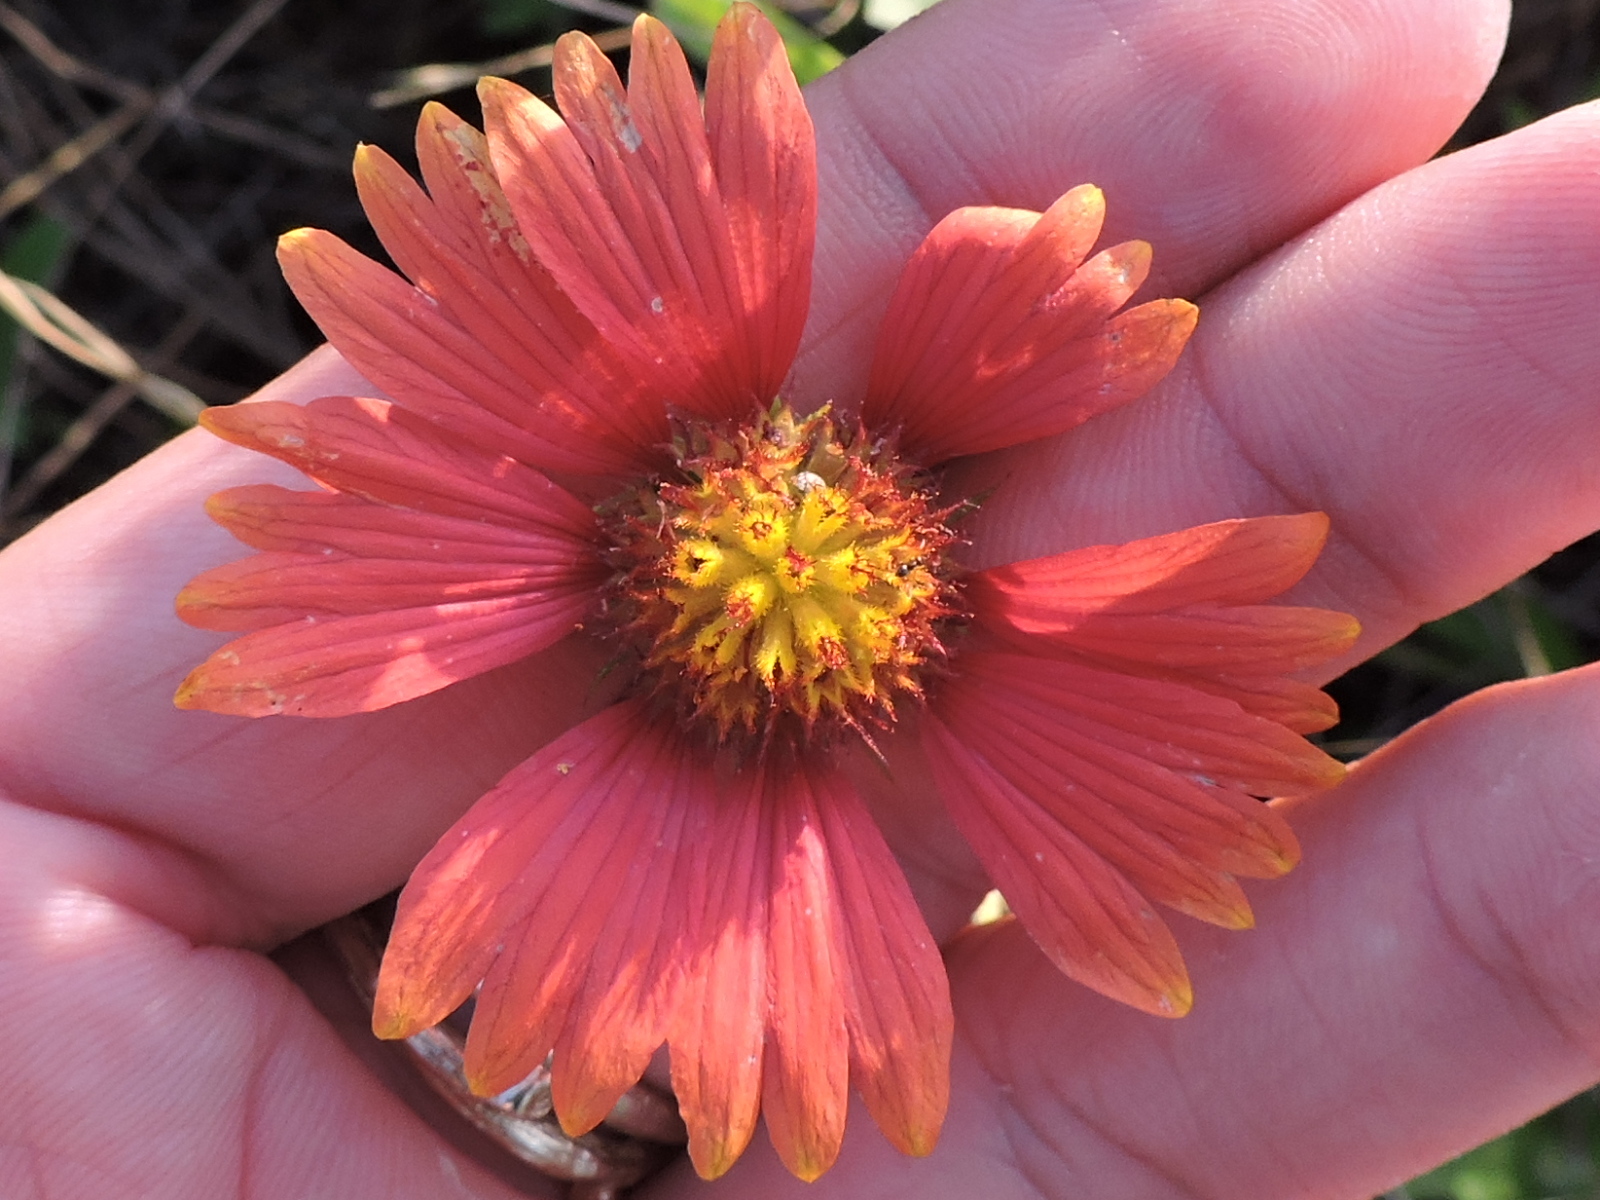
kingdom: Plantae
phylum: Tracheophyta
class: Magnoliopsida
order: Asterales
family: Asteraceae
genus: Gaillardia
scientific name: Gaillardia pulchella
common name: Firewheel
